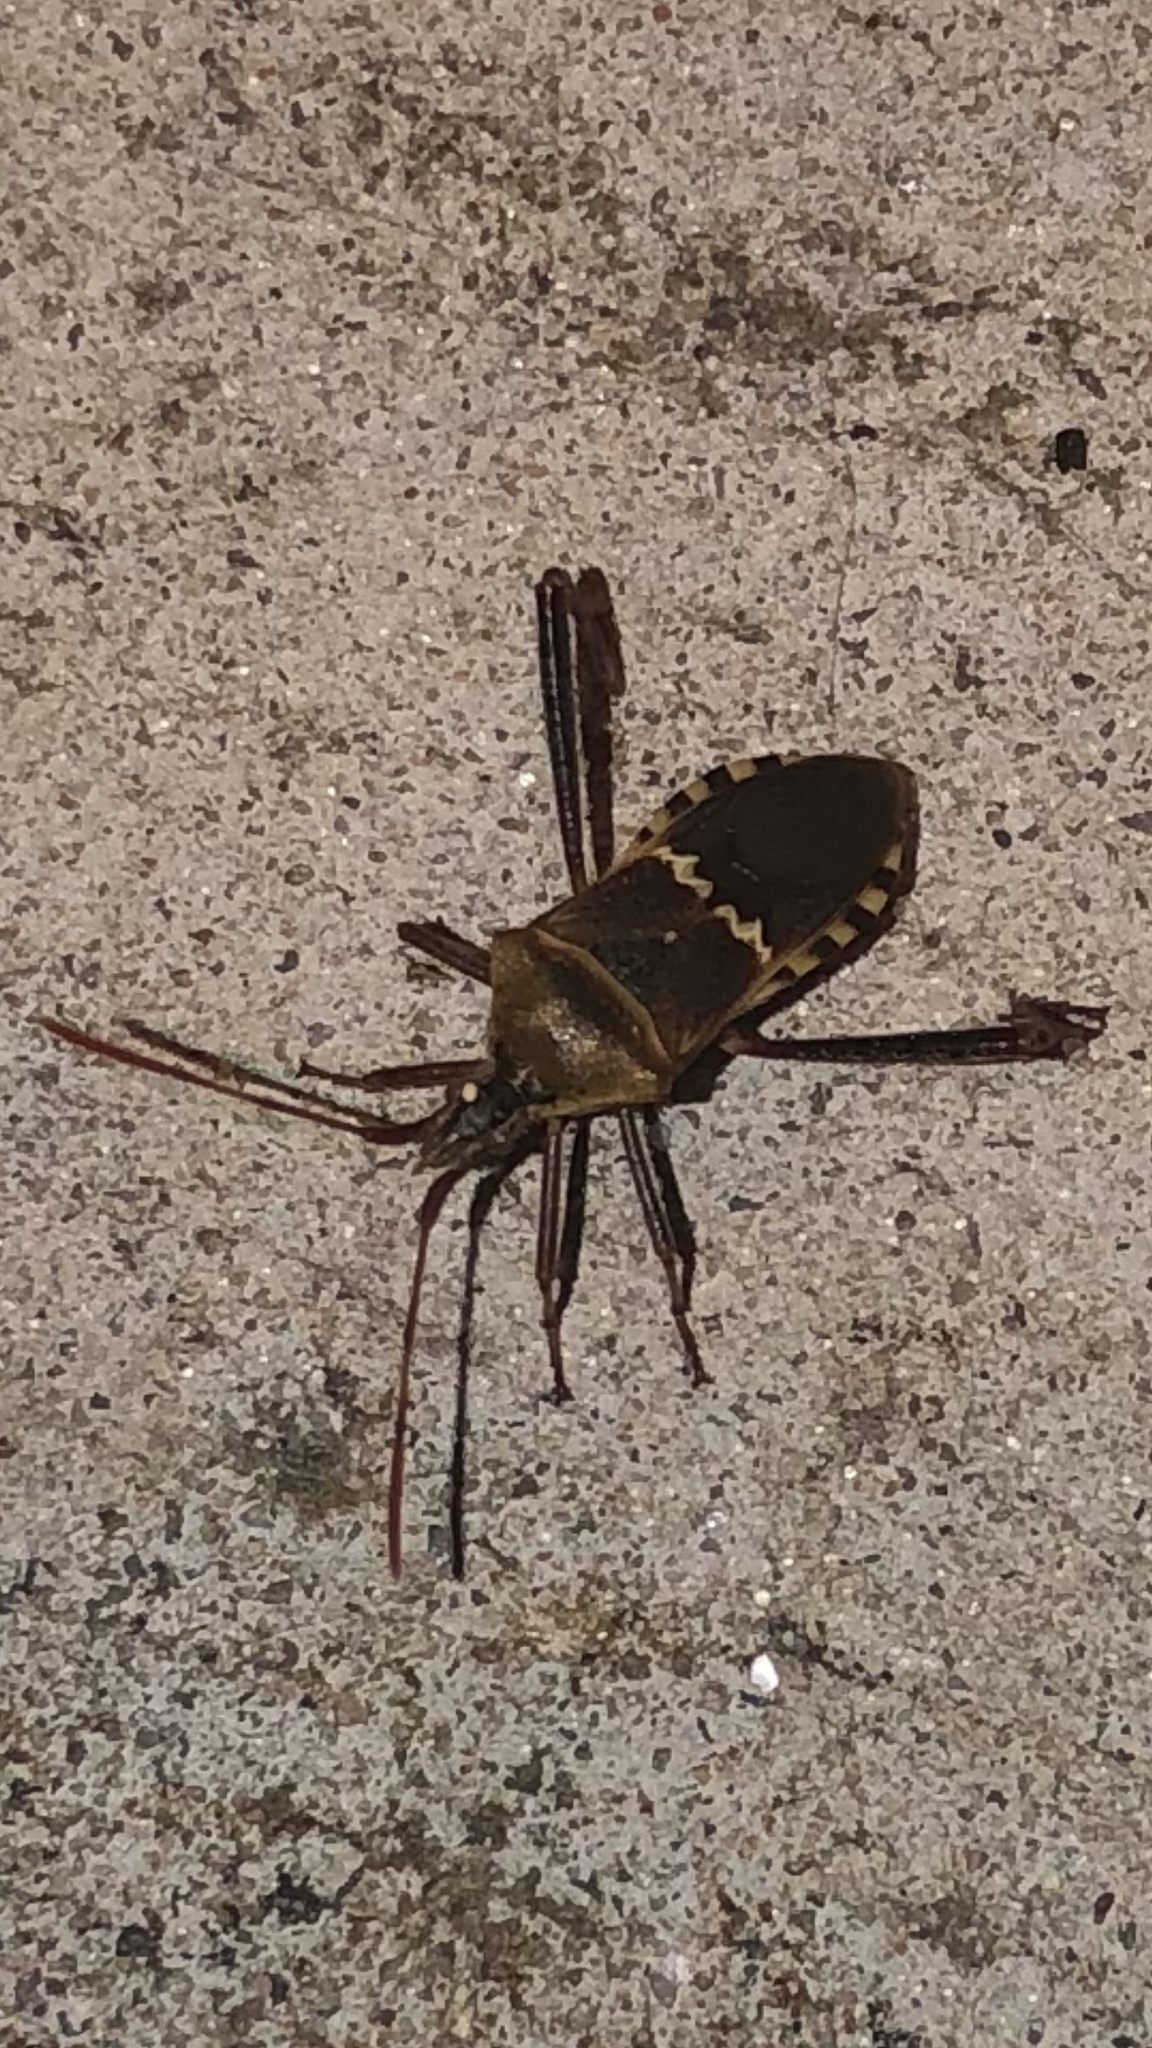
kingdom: Animalia
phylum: Arthropoda
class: Insecta
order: Hemiptera
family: Coreidae
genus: Leptoglossus
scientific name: Leptoglossus clypealis
